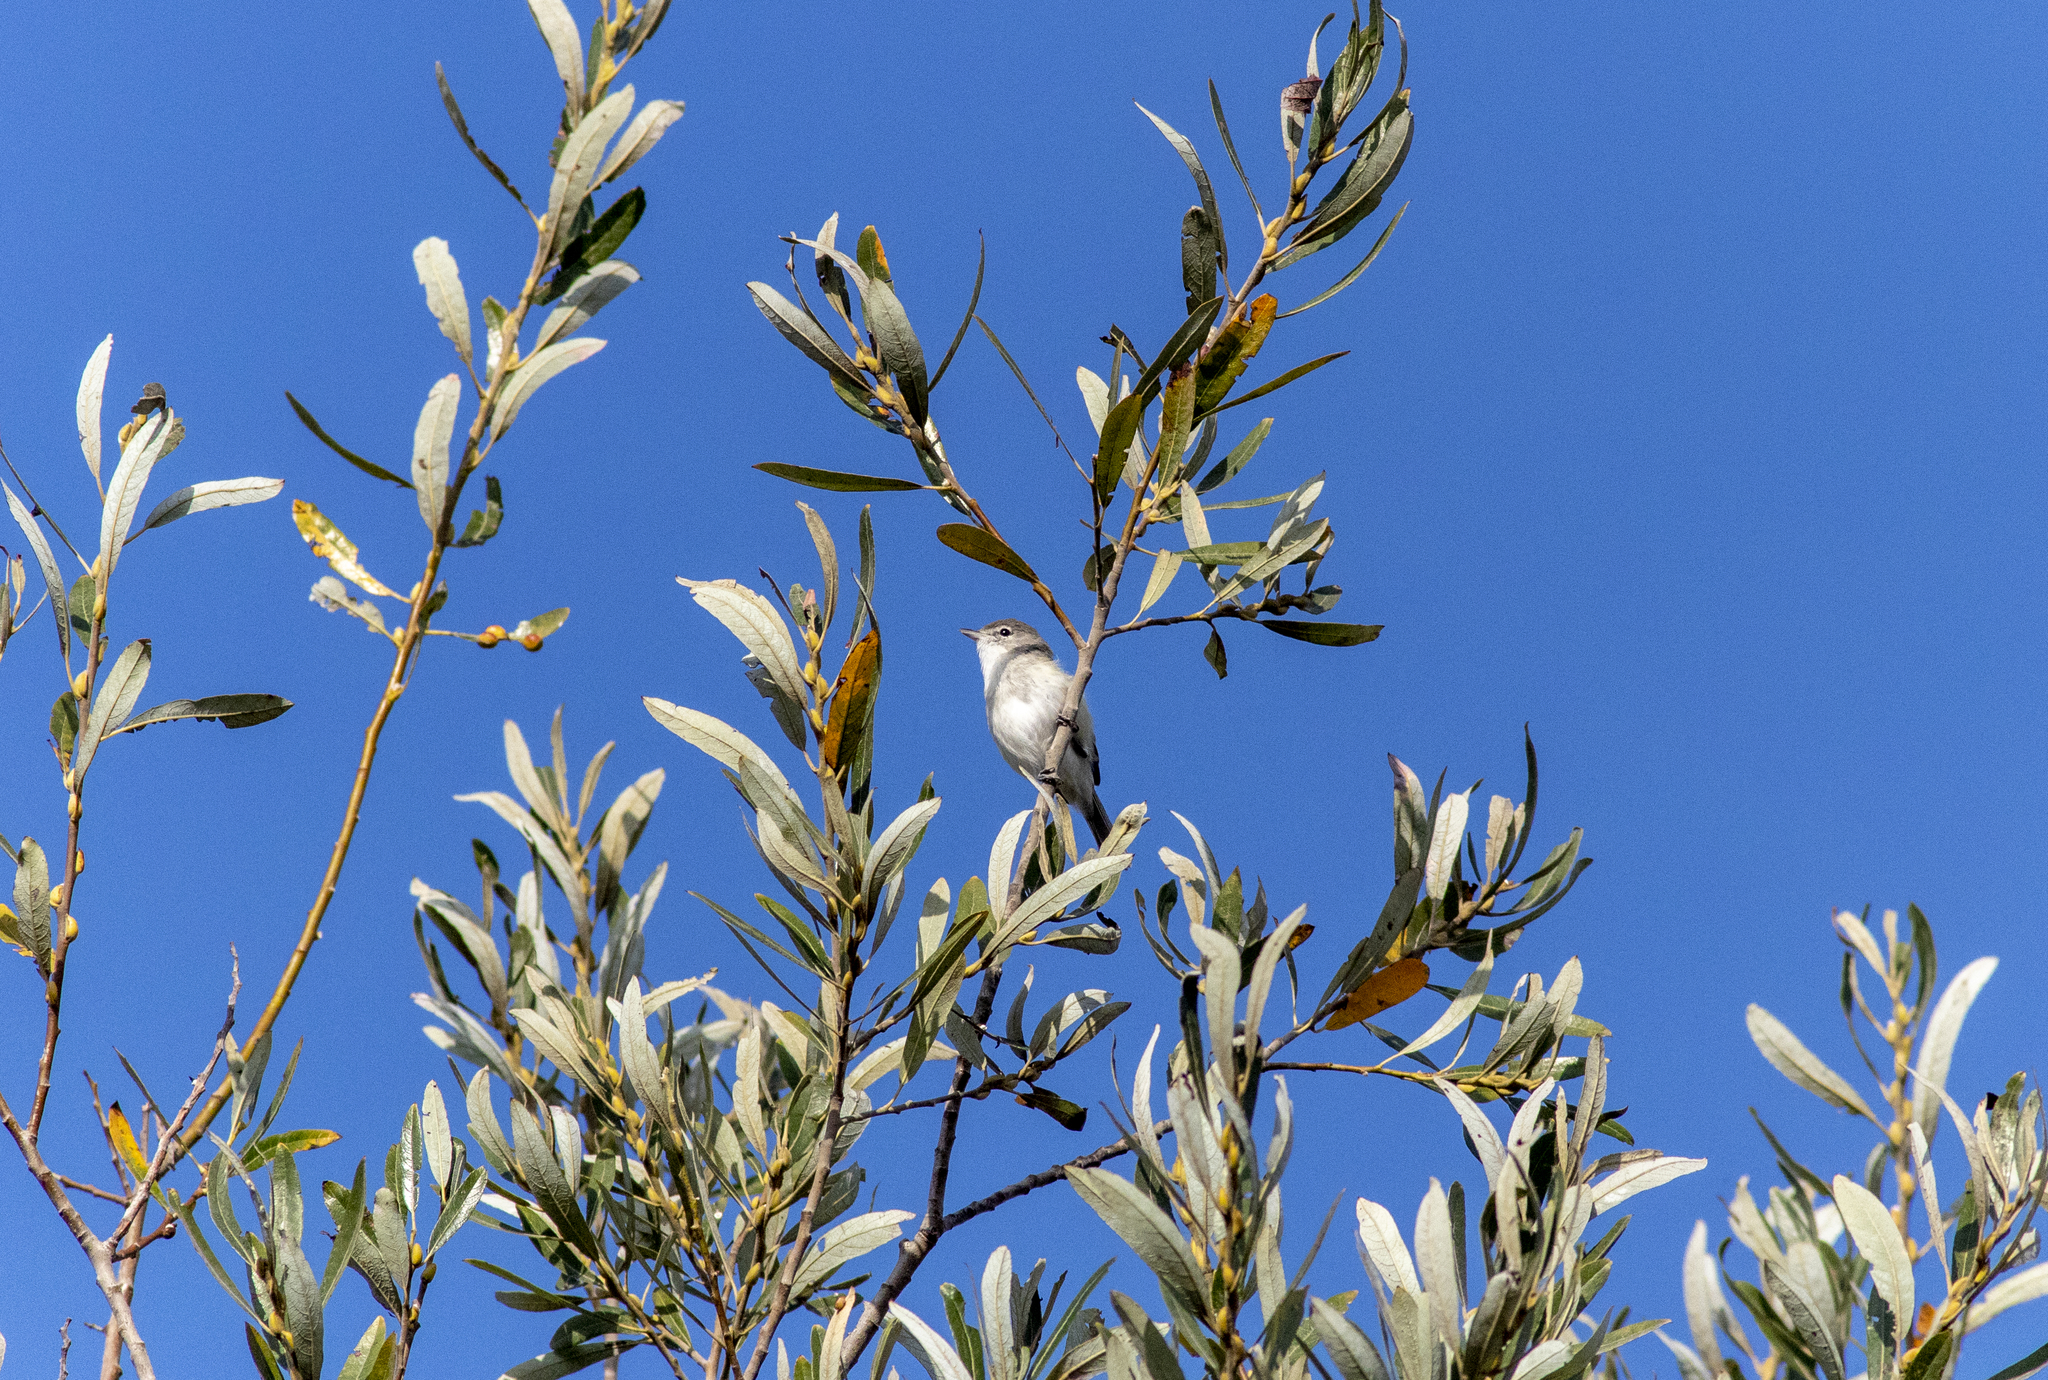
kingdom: Animalia
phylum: Chordata
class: Aves
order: Passeriformes
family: Vireonidae
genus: Vireo
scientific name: Vireo bellii
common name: Bell's vireo
